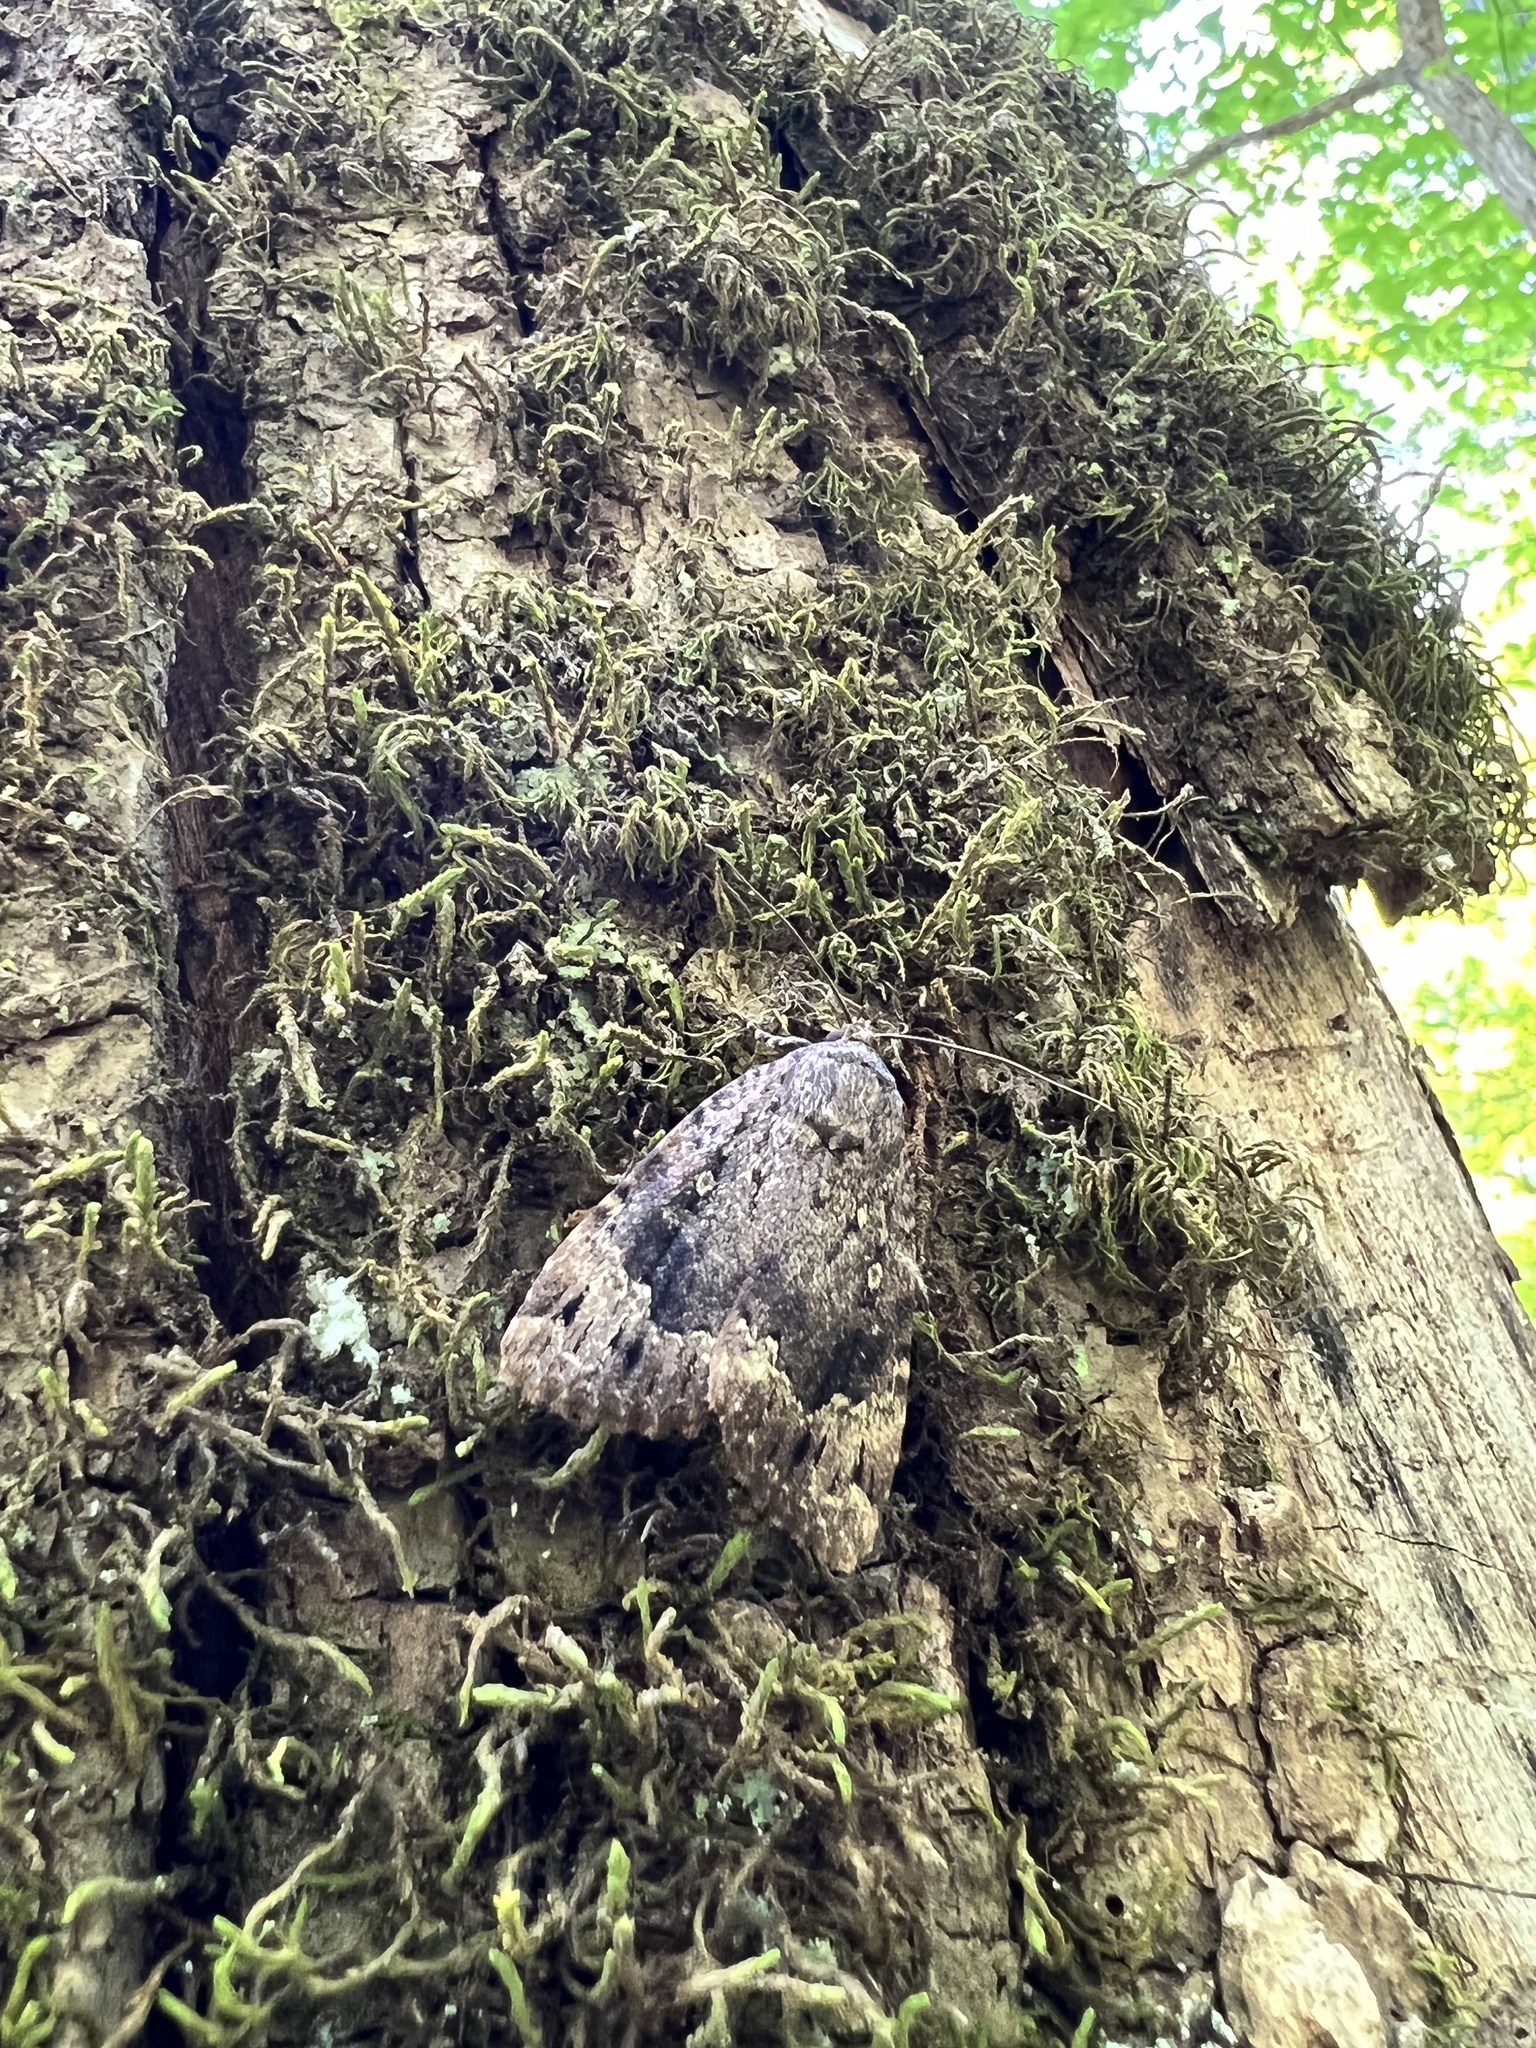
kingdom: Animalia
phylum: Arthropoda
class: Insecta
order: Lepidoptera
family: Noctuidae
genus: Amphipyra
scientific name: Amphipyra pyramidoides
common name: American copper underwing
